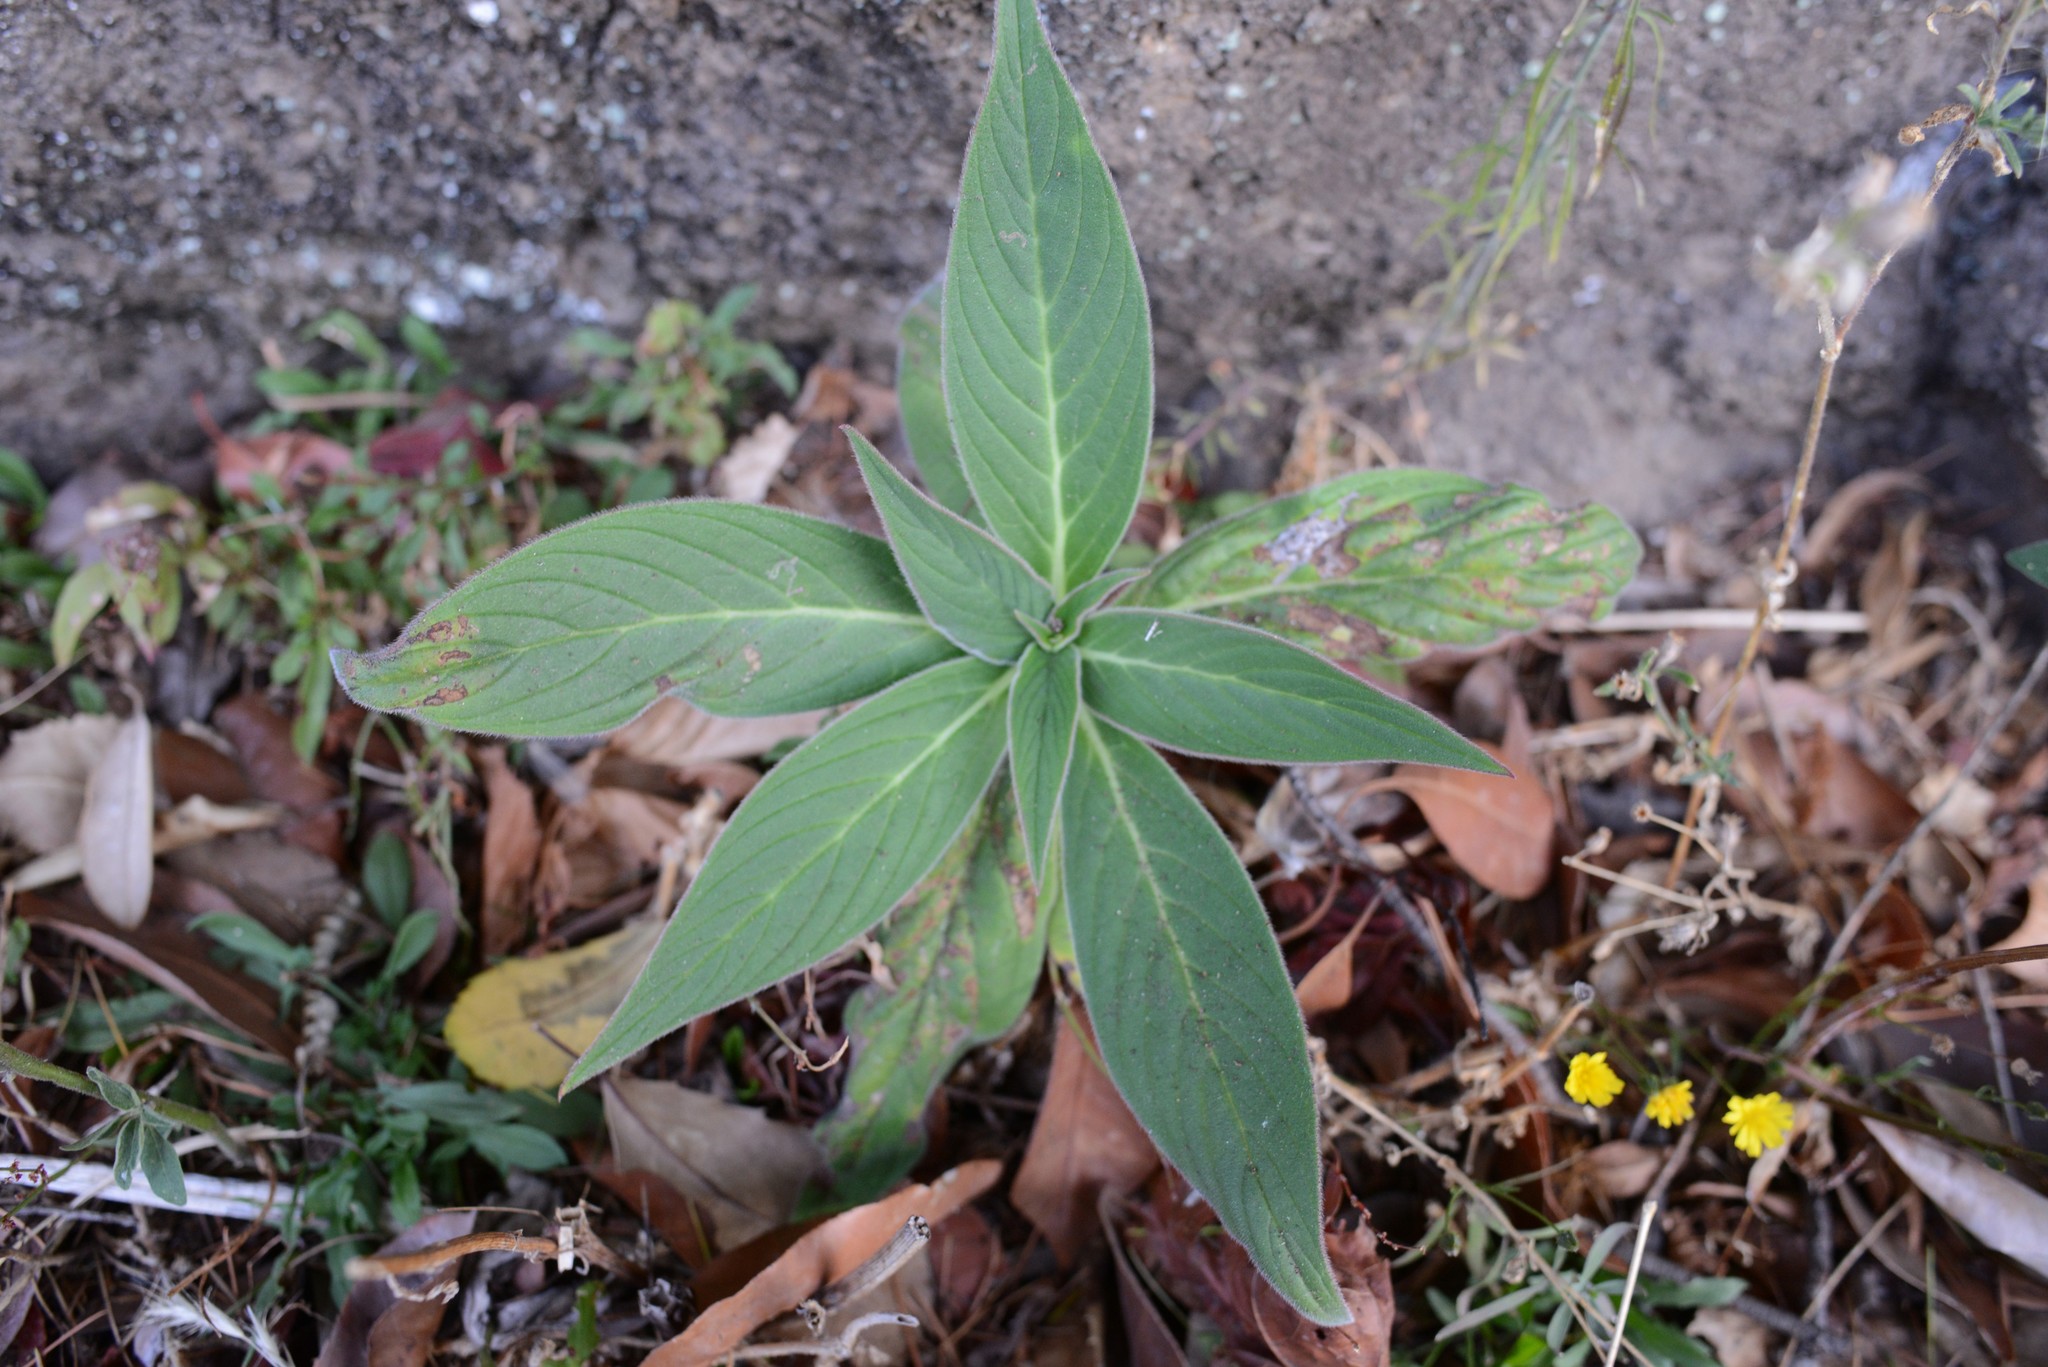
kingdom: Plantae
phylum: Tracheophyta
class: Magnoliopsida
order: Boraginales
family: Boraginaceae
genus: Echium
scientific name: Echium candicans
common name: Pride of madeira
